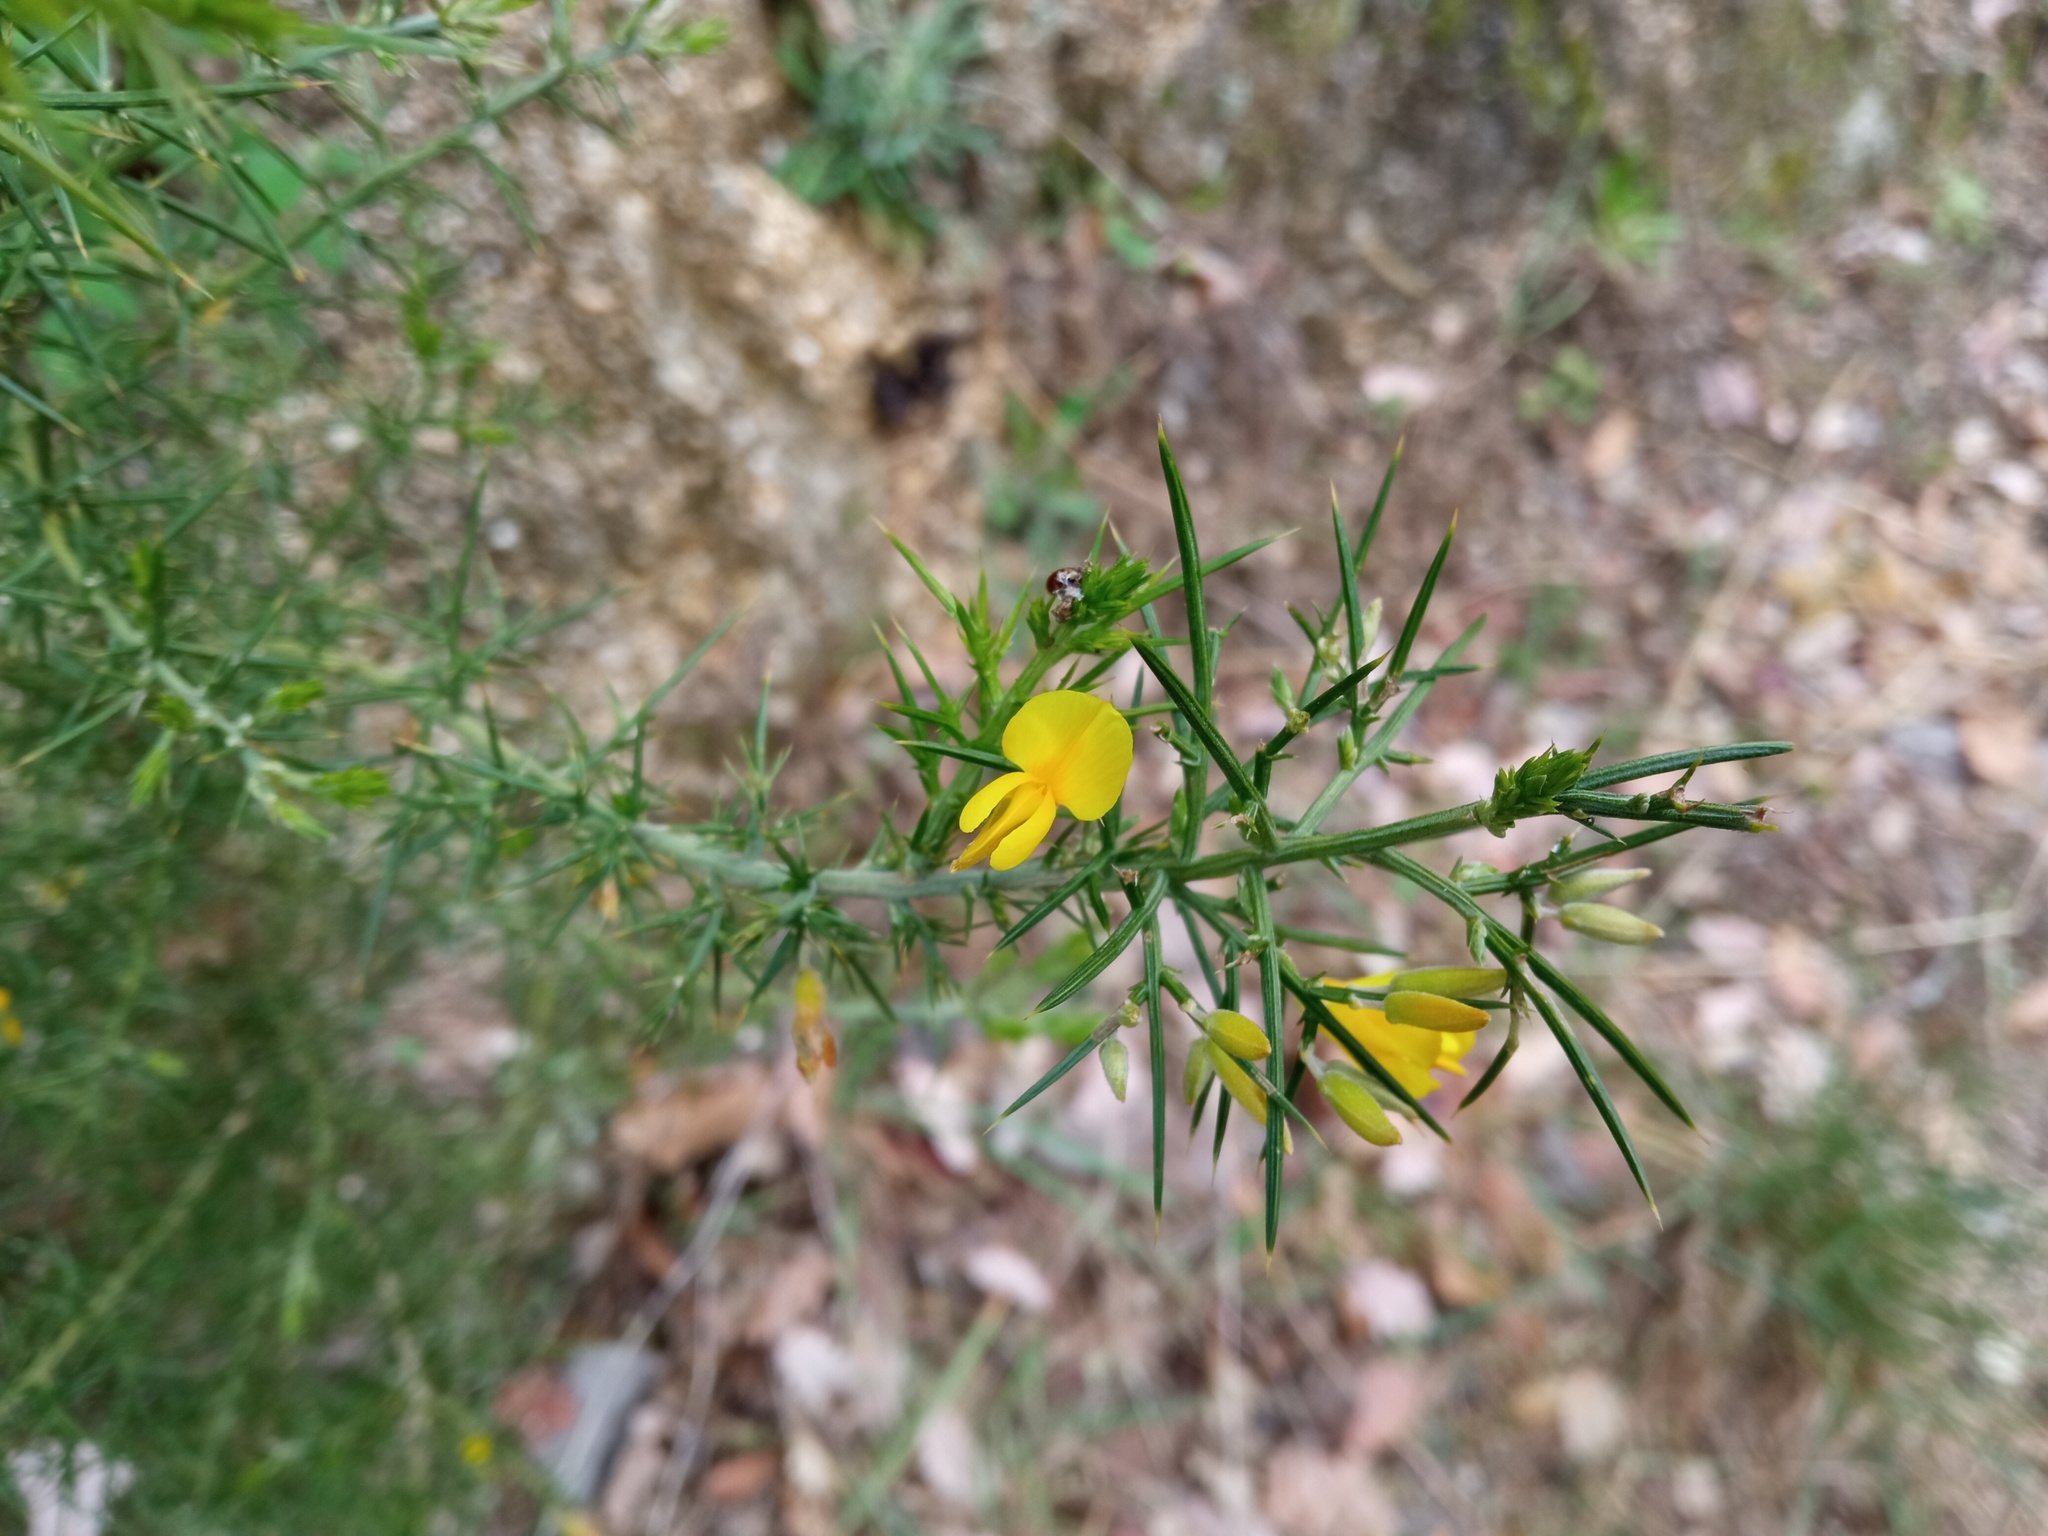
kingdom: Plantae
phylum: Tracheophyta
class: Magnoliopsida
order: Fabales
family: Fabaceae
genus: Ulex
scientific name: Ulex parviflorus
